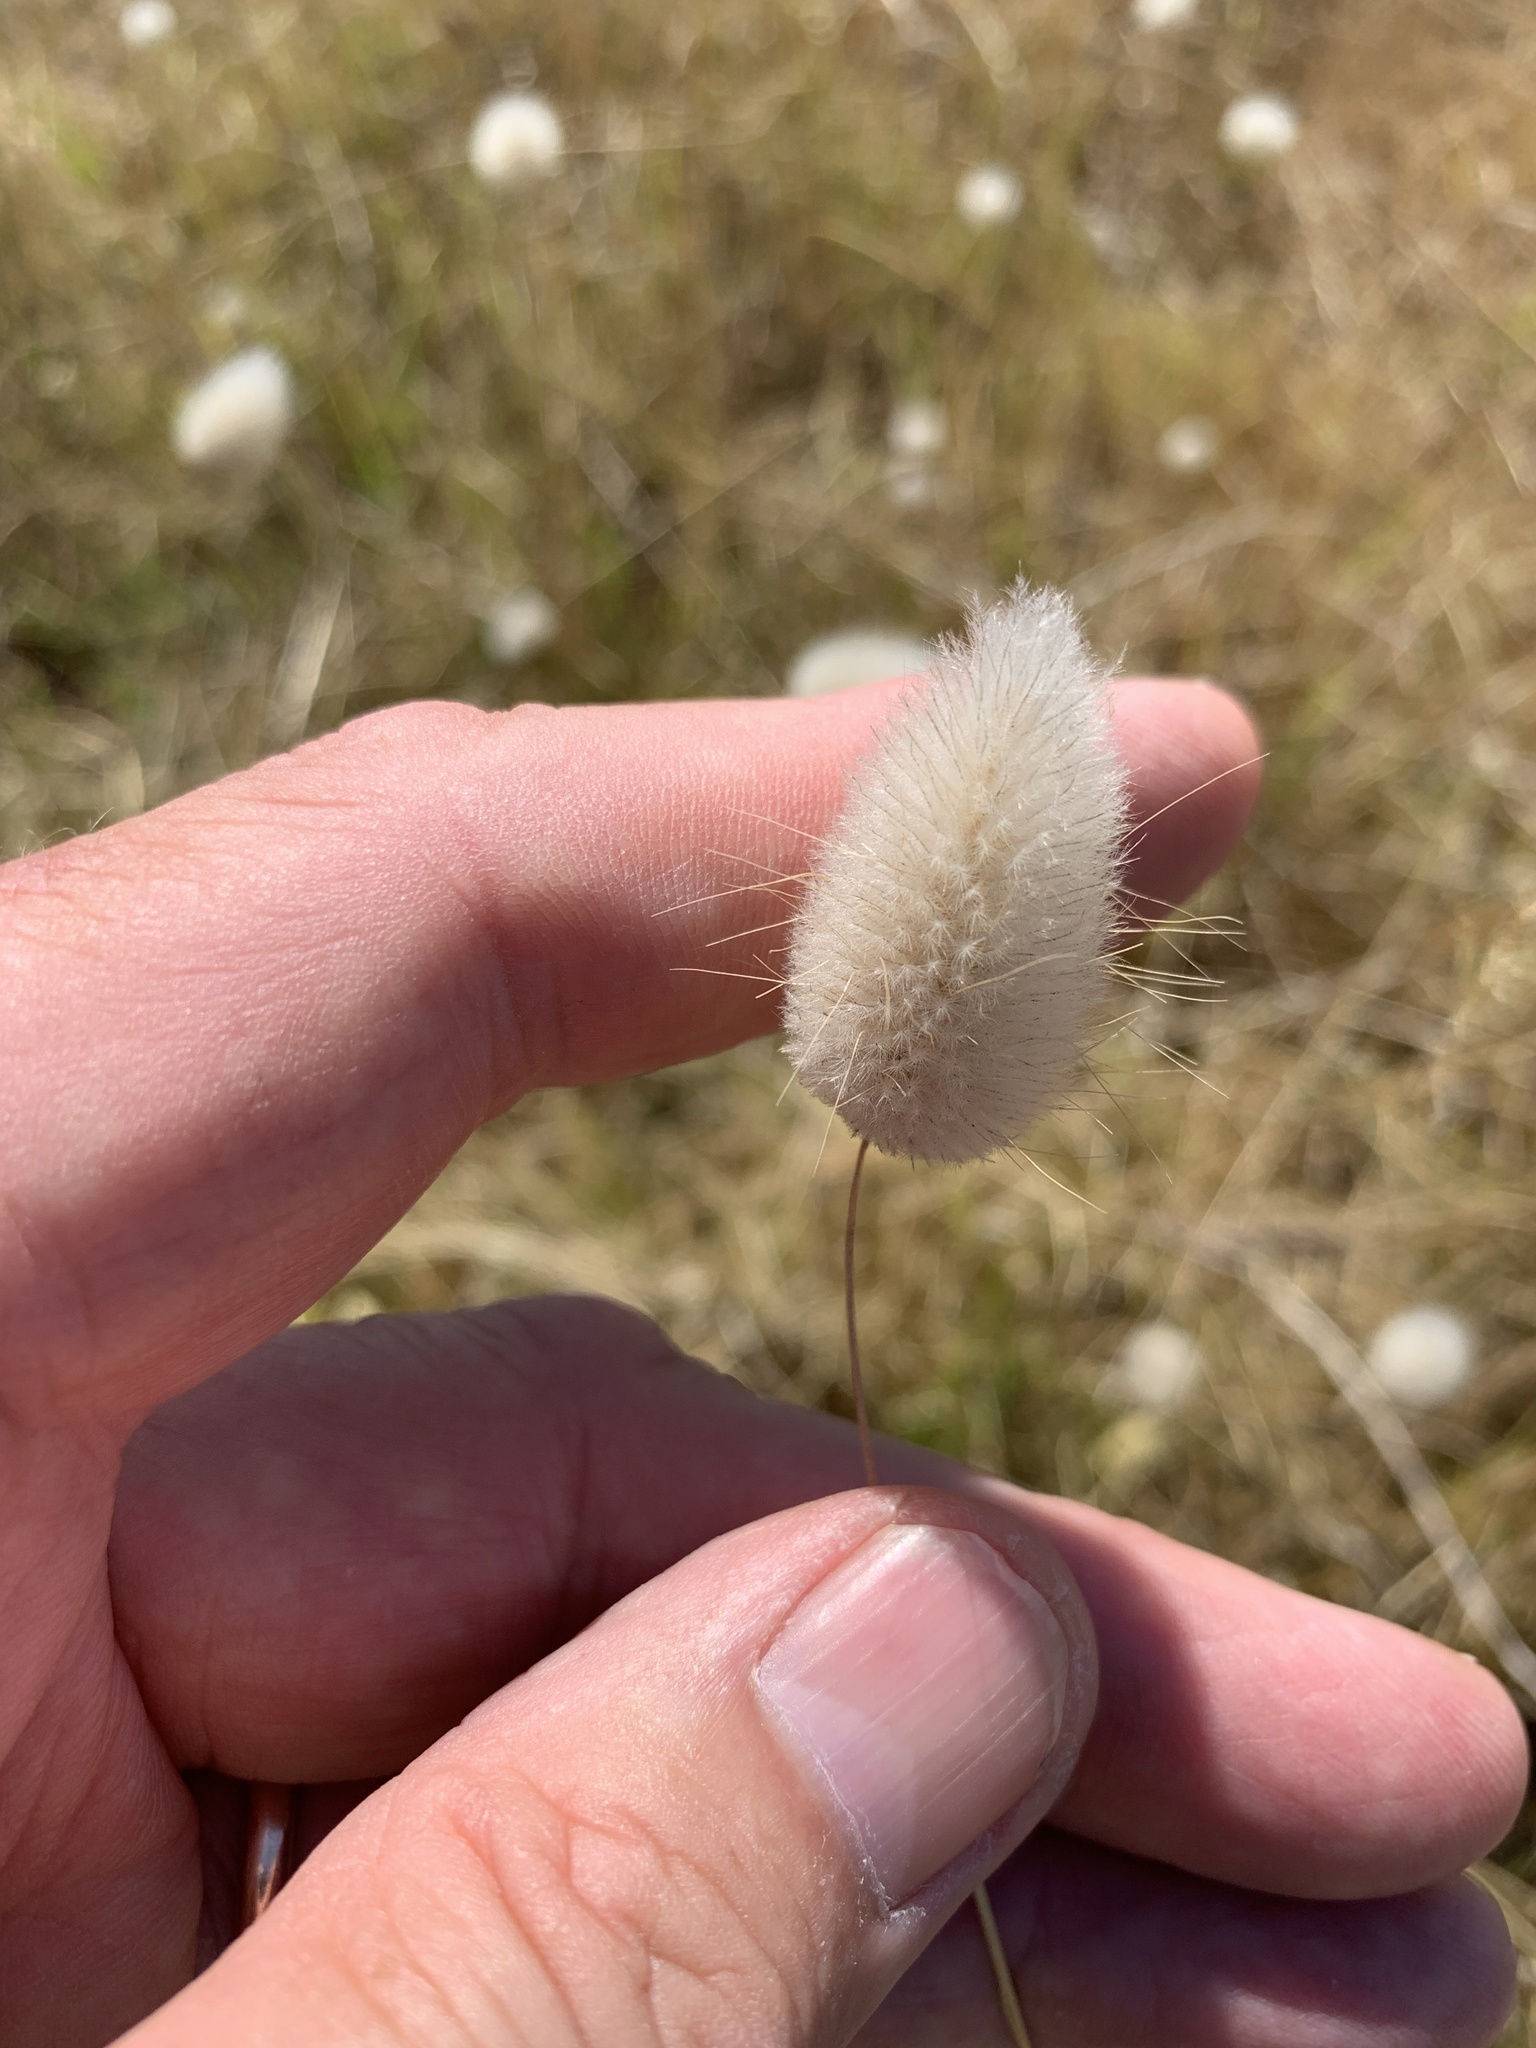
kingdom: Plantae
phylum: Tracheophyta
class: Liliopsida
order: Poales
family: Poaceae
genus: Lagurus
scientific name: Lagurus ovatus
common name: Hare's-tail
